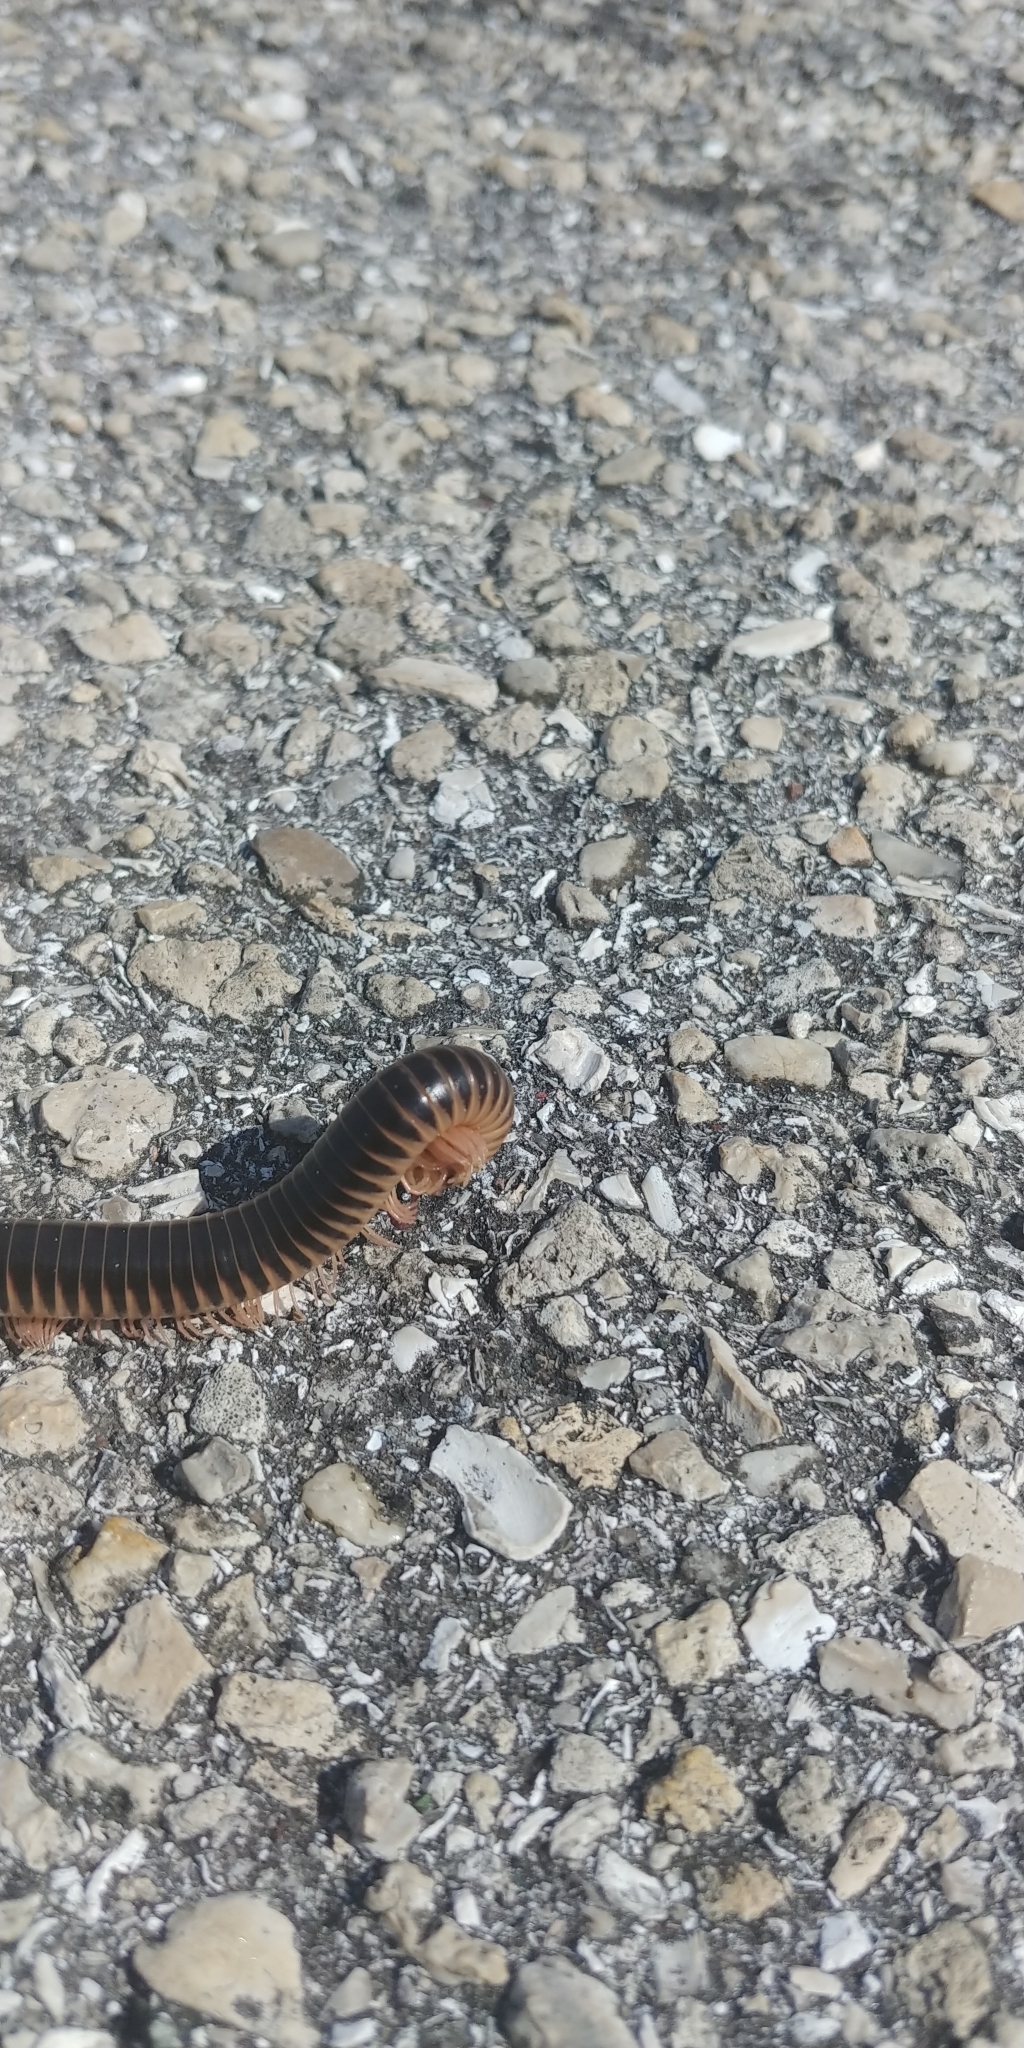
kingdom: Animalia
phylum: Arthropoda
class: Diplopoda
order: Spirobolida
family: Spirobolidae
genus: Chicobolus
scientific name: Chicobolus spinigerus
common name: Florida ivory millipede
